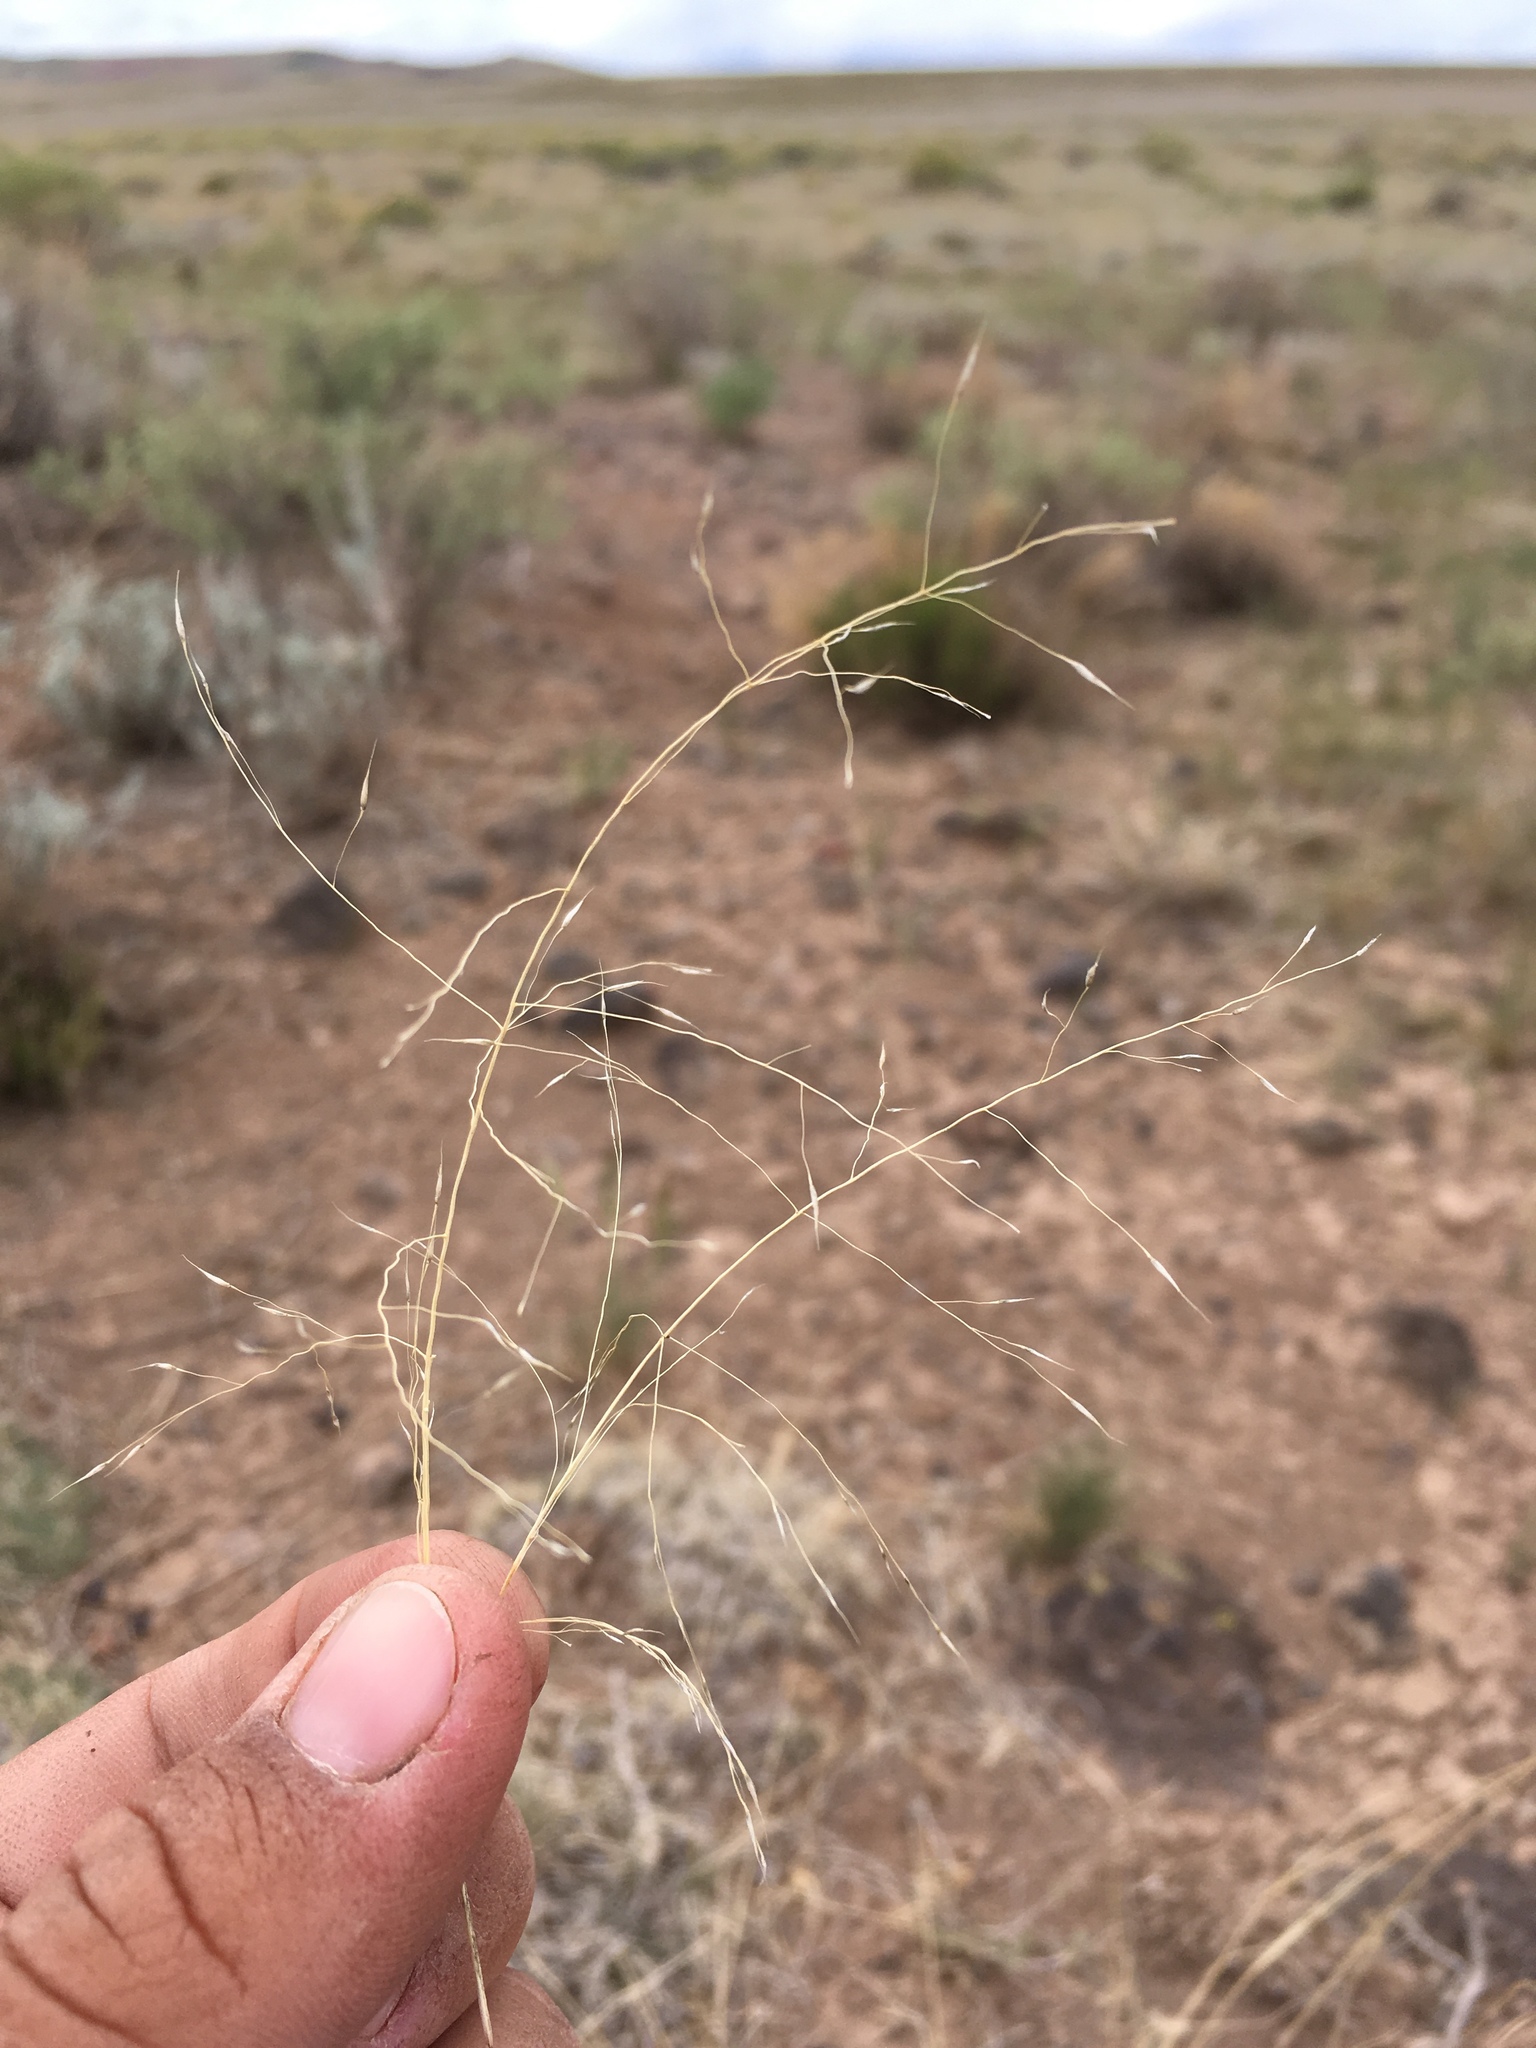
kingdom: Plantae
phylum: Tracheophyta
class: Liliopsida
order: Poales
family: Poaceae
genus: Muhlenbergia
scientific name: Muhlenbergia torreyi
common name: Ring grass
